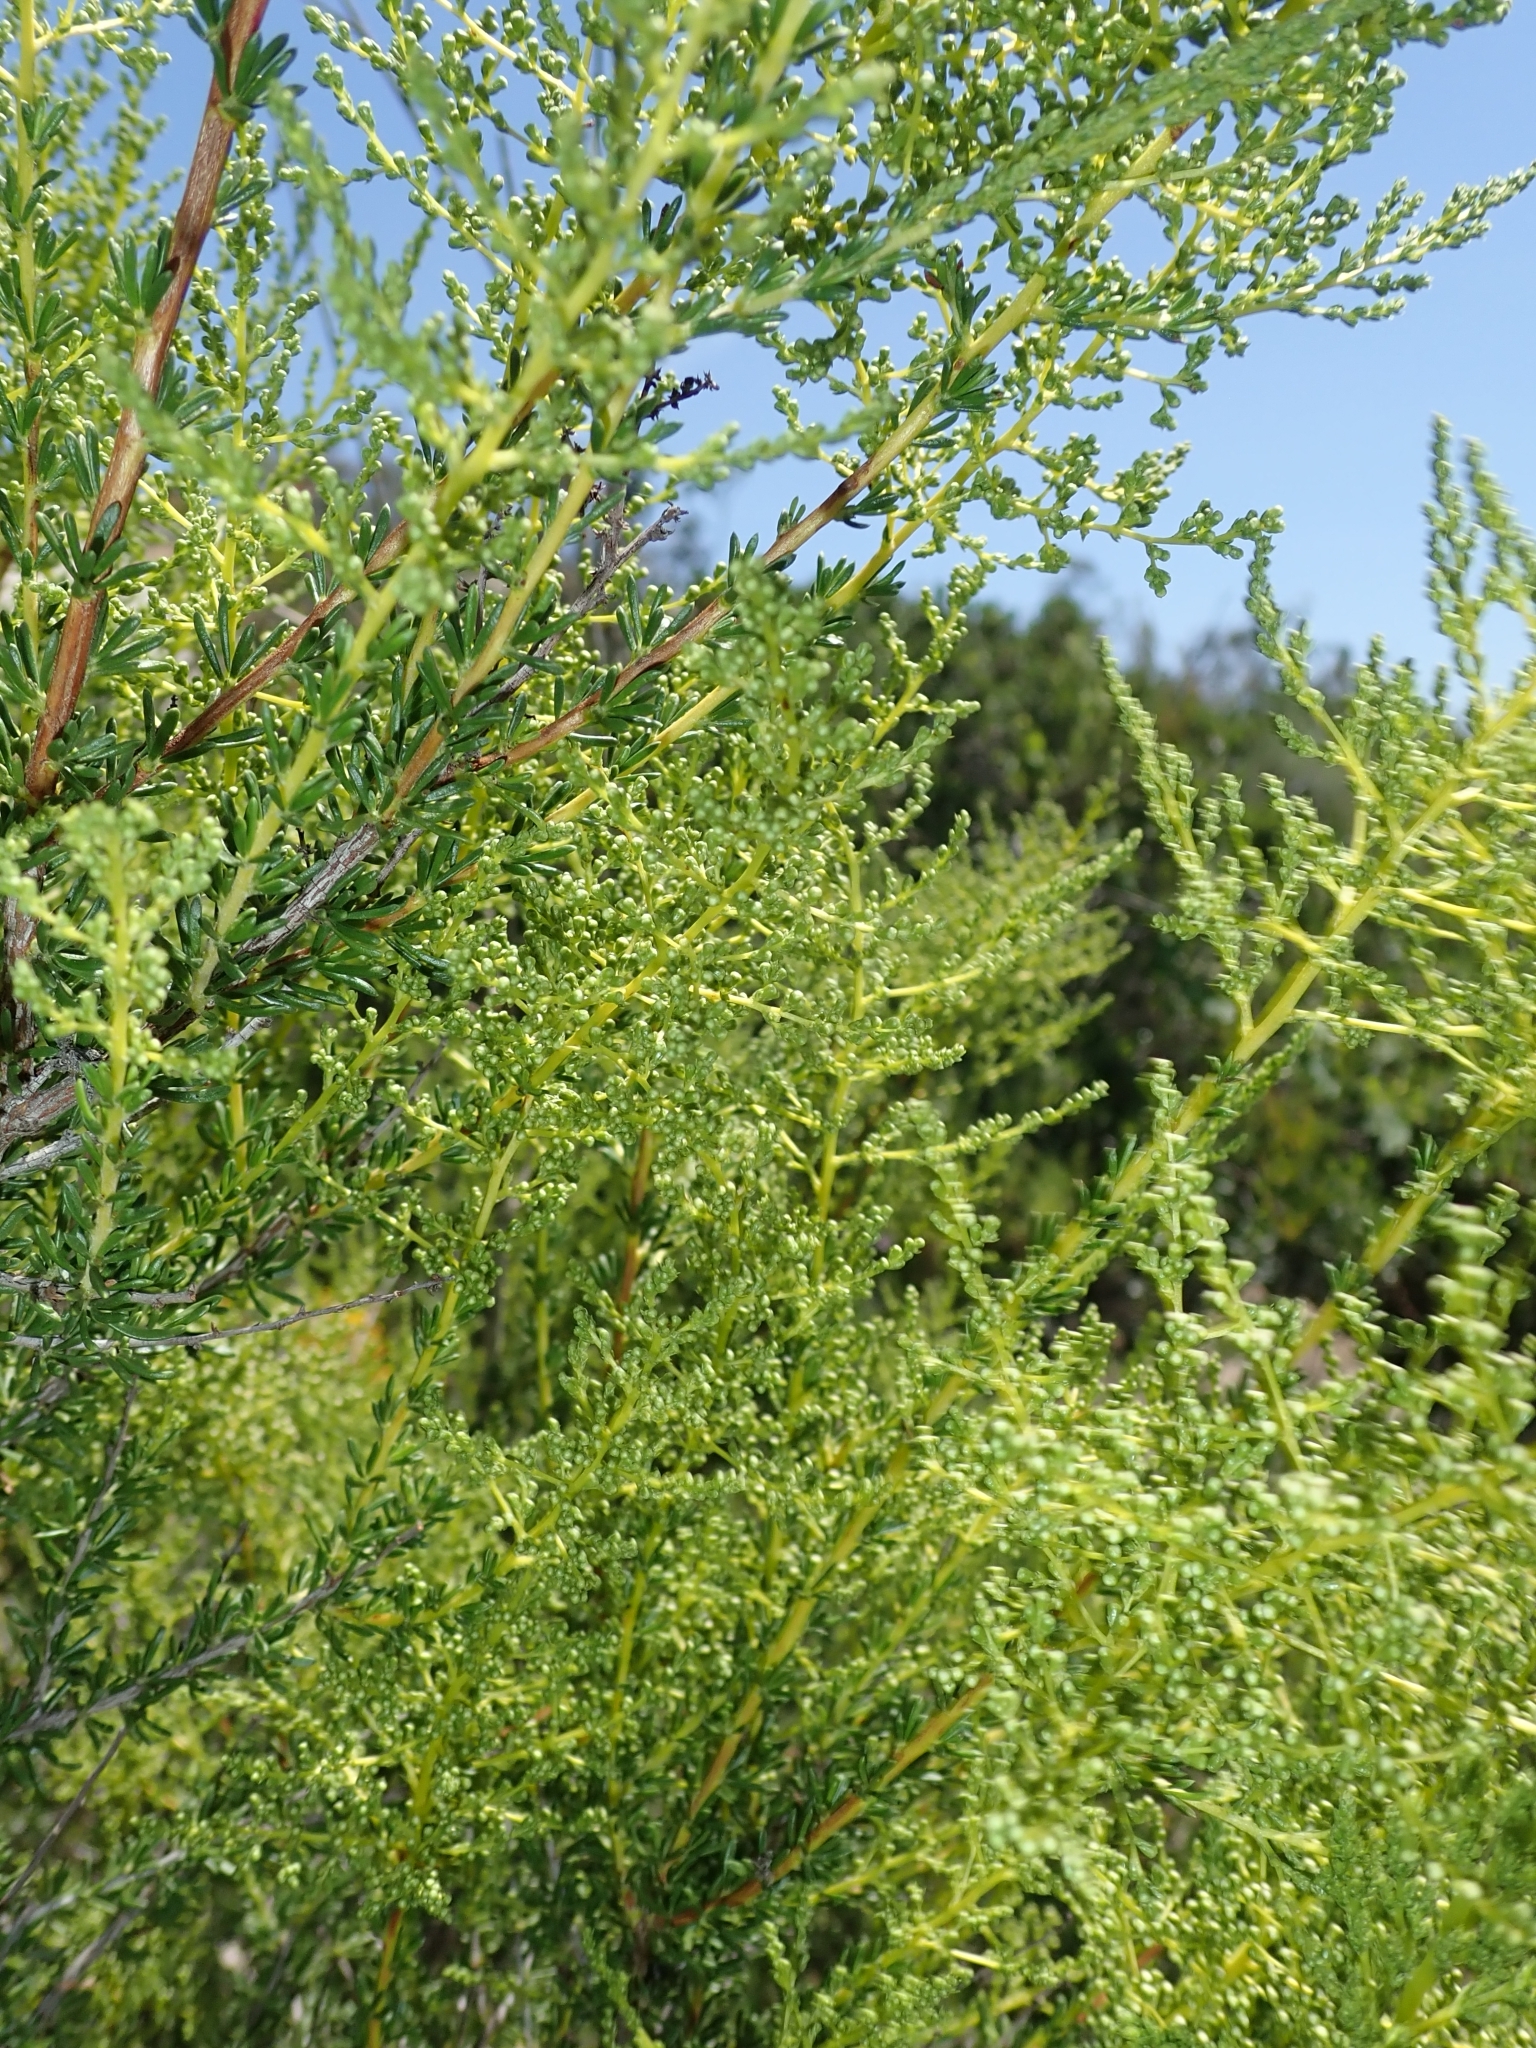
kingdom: Plantae
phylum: Tracheophyta
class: Magnoliopsida
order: Rosales
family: Rosaceae
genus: Adenostoma
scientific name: Adenostoma fasciculatum
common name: Chamise
